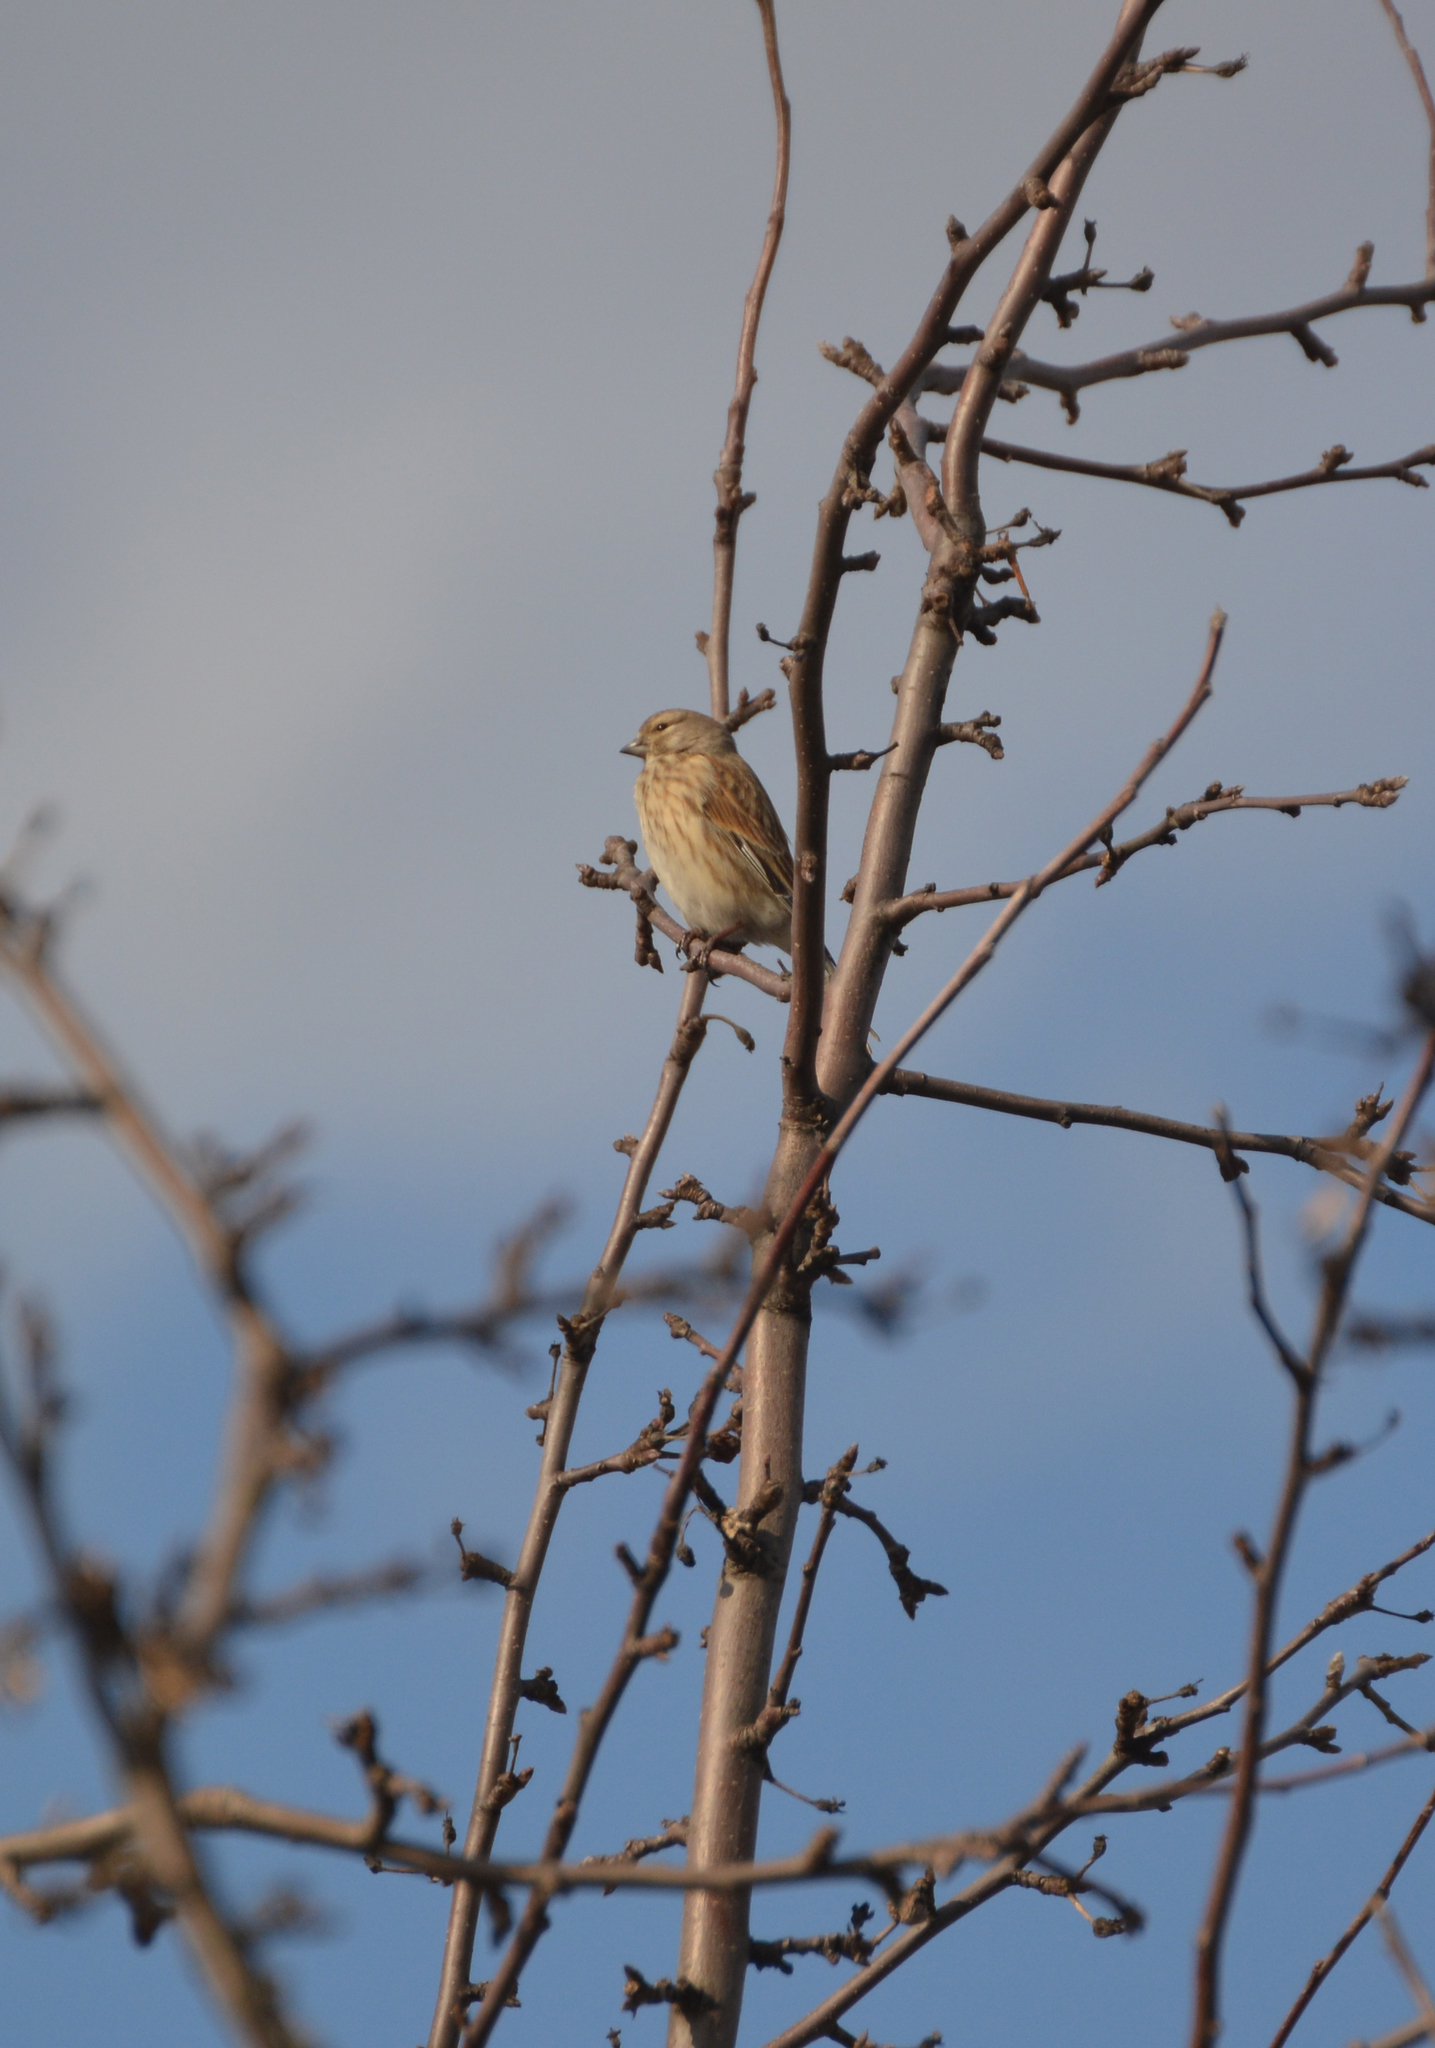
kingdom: Animalia
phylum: Chordata
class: Aves
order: Passeriformes
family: Fringillidae
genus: Linaria
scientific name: Linaria cannabina
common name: Common linnet
